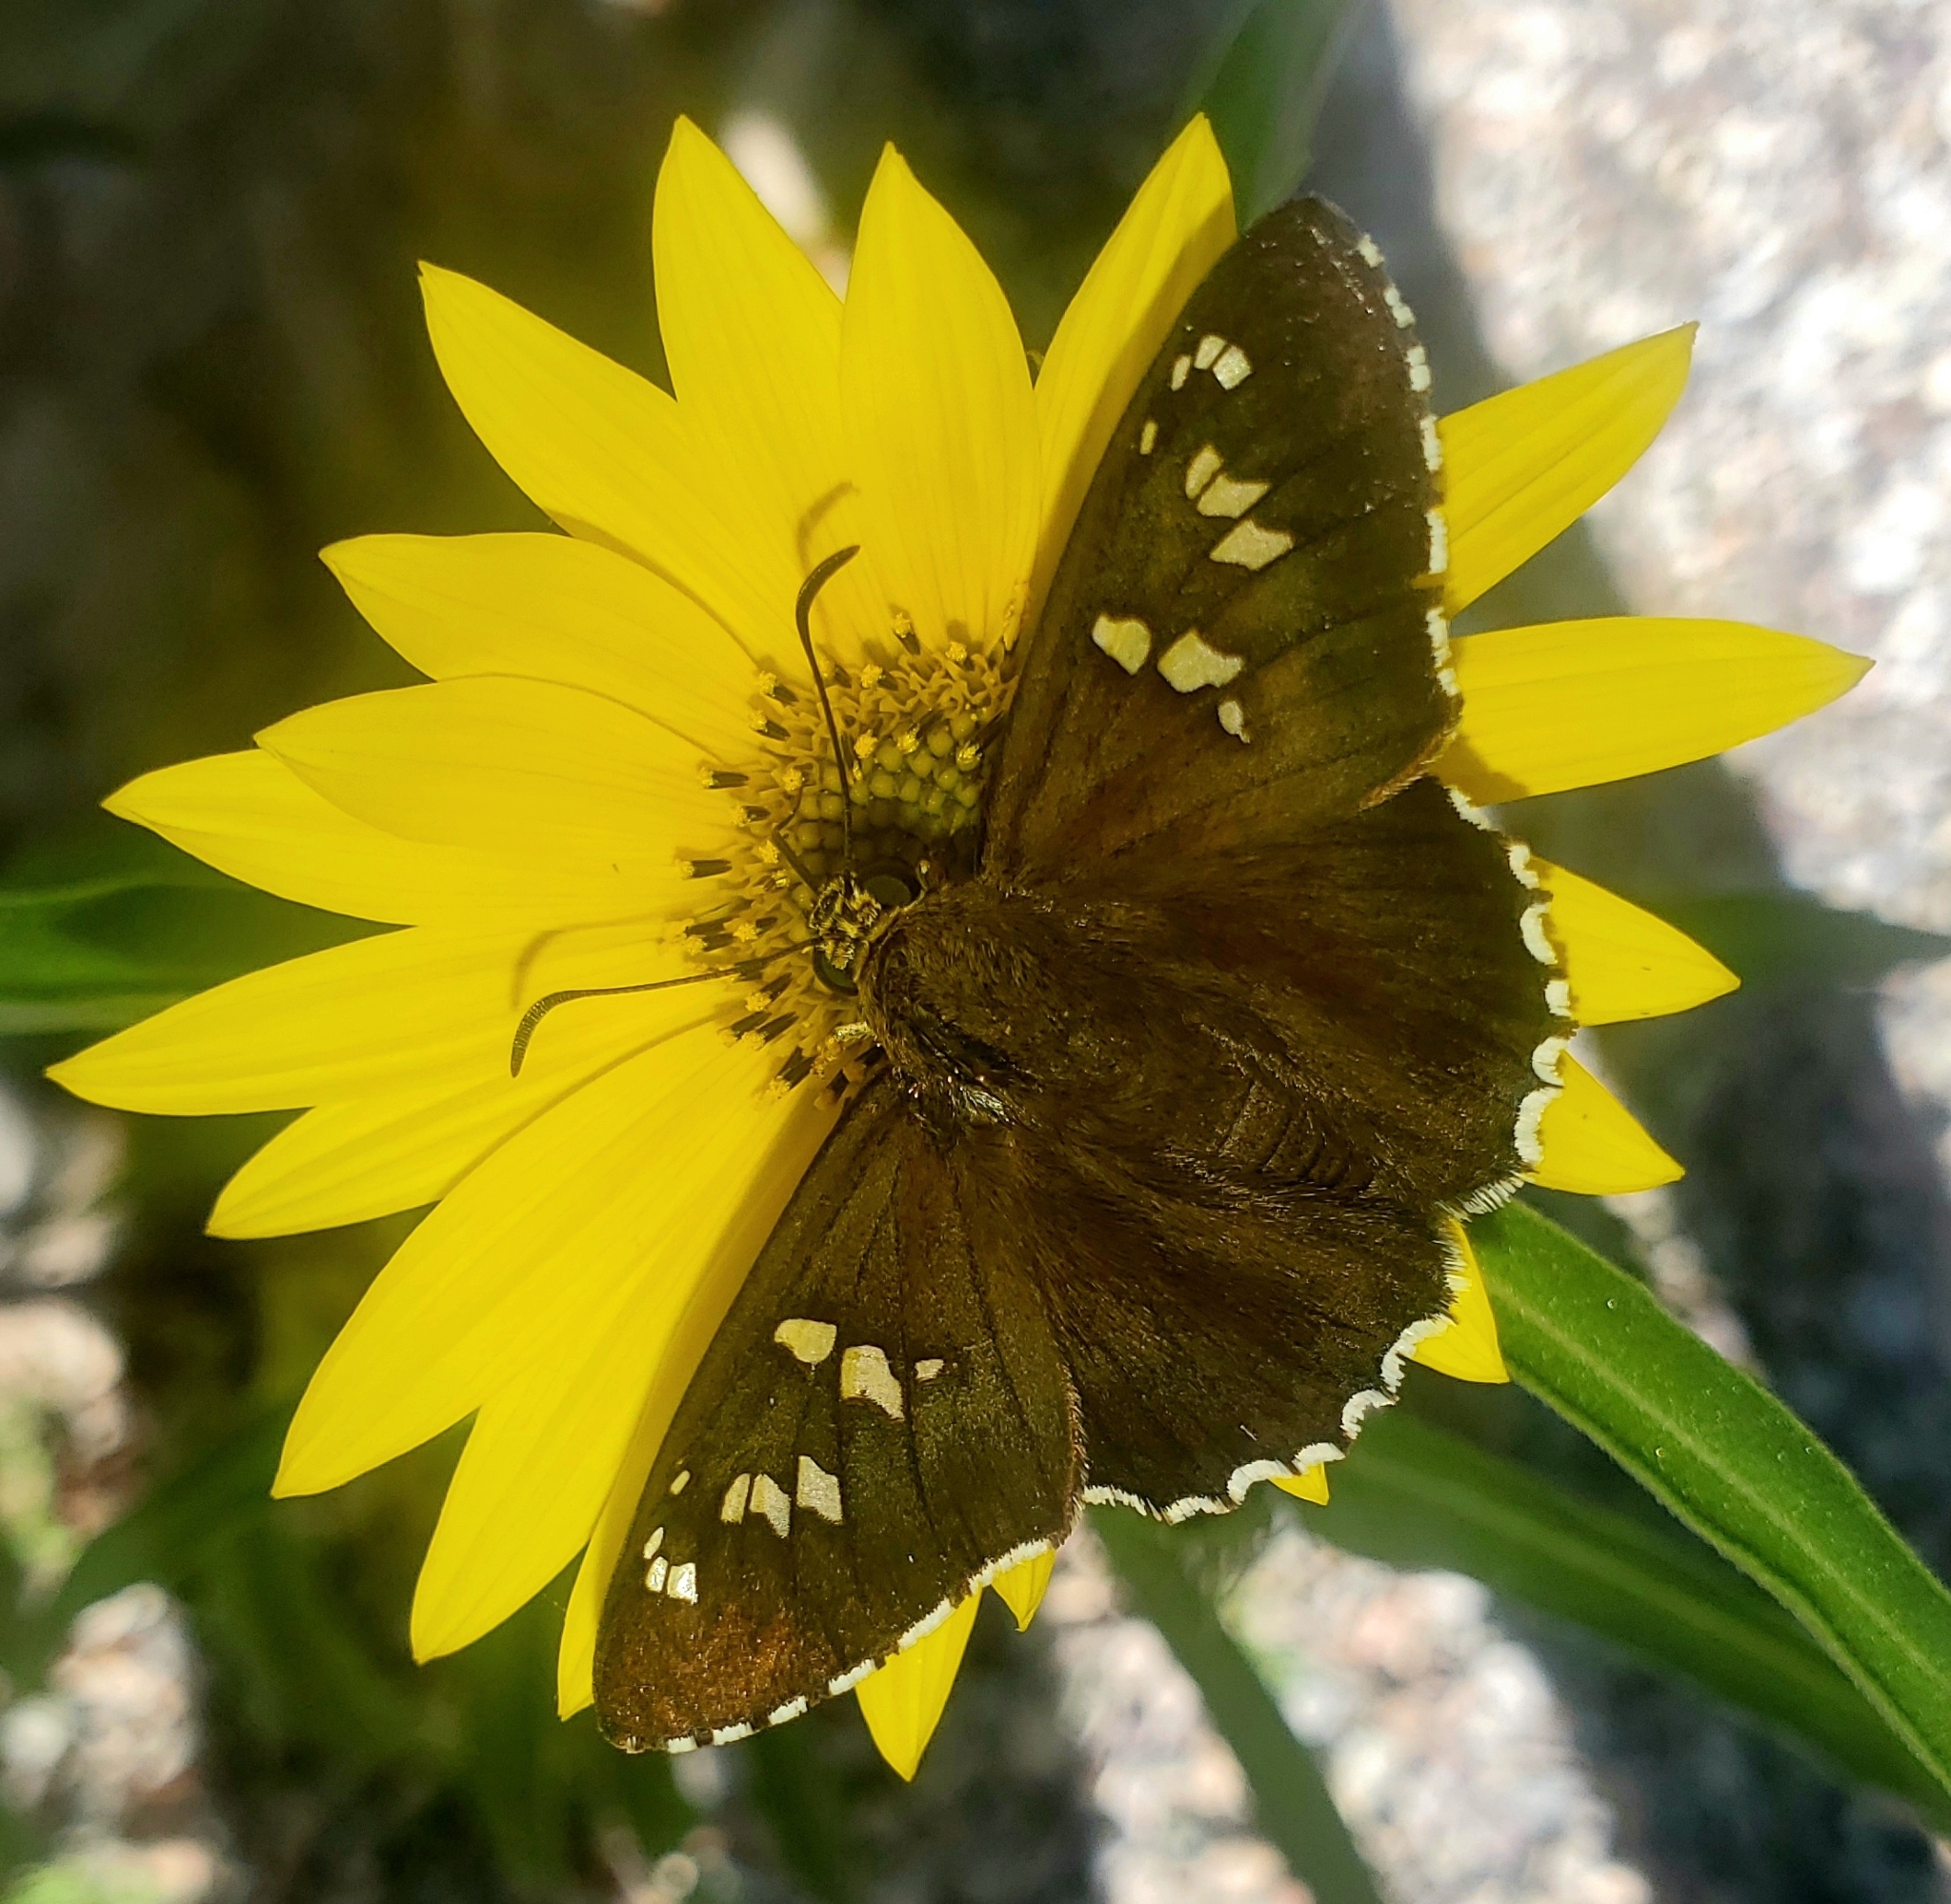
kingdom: Animalia
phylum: Arthropoda
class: Insecta
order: Lepidoptera
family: Hesperiidae
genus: Pyrrhopyge
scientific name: Pyrrhopyge araxes
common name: Dull firetip
